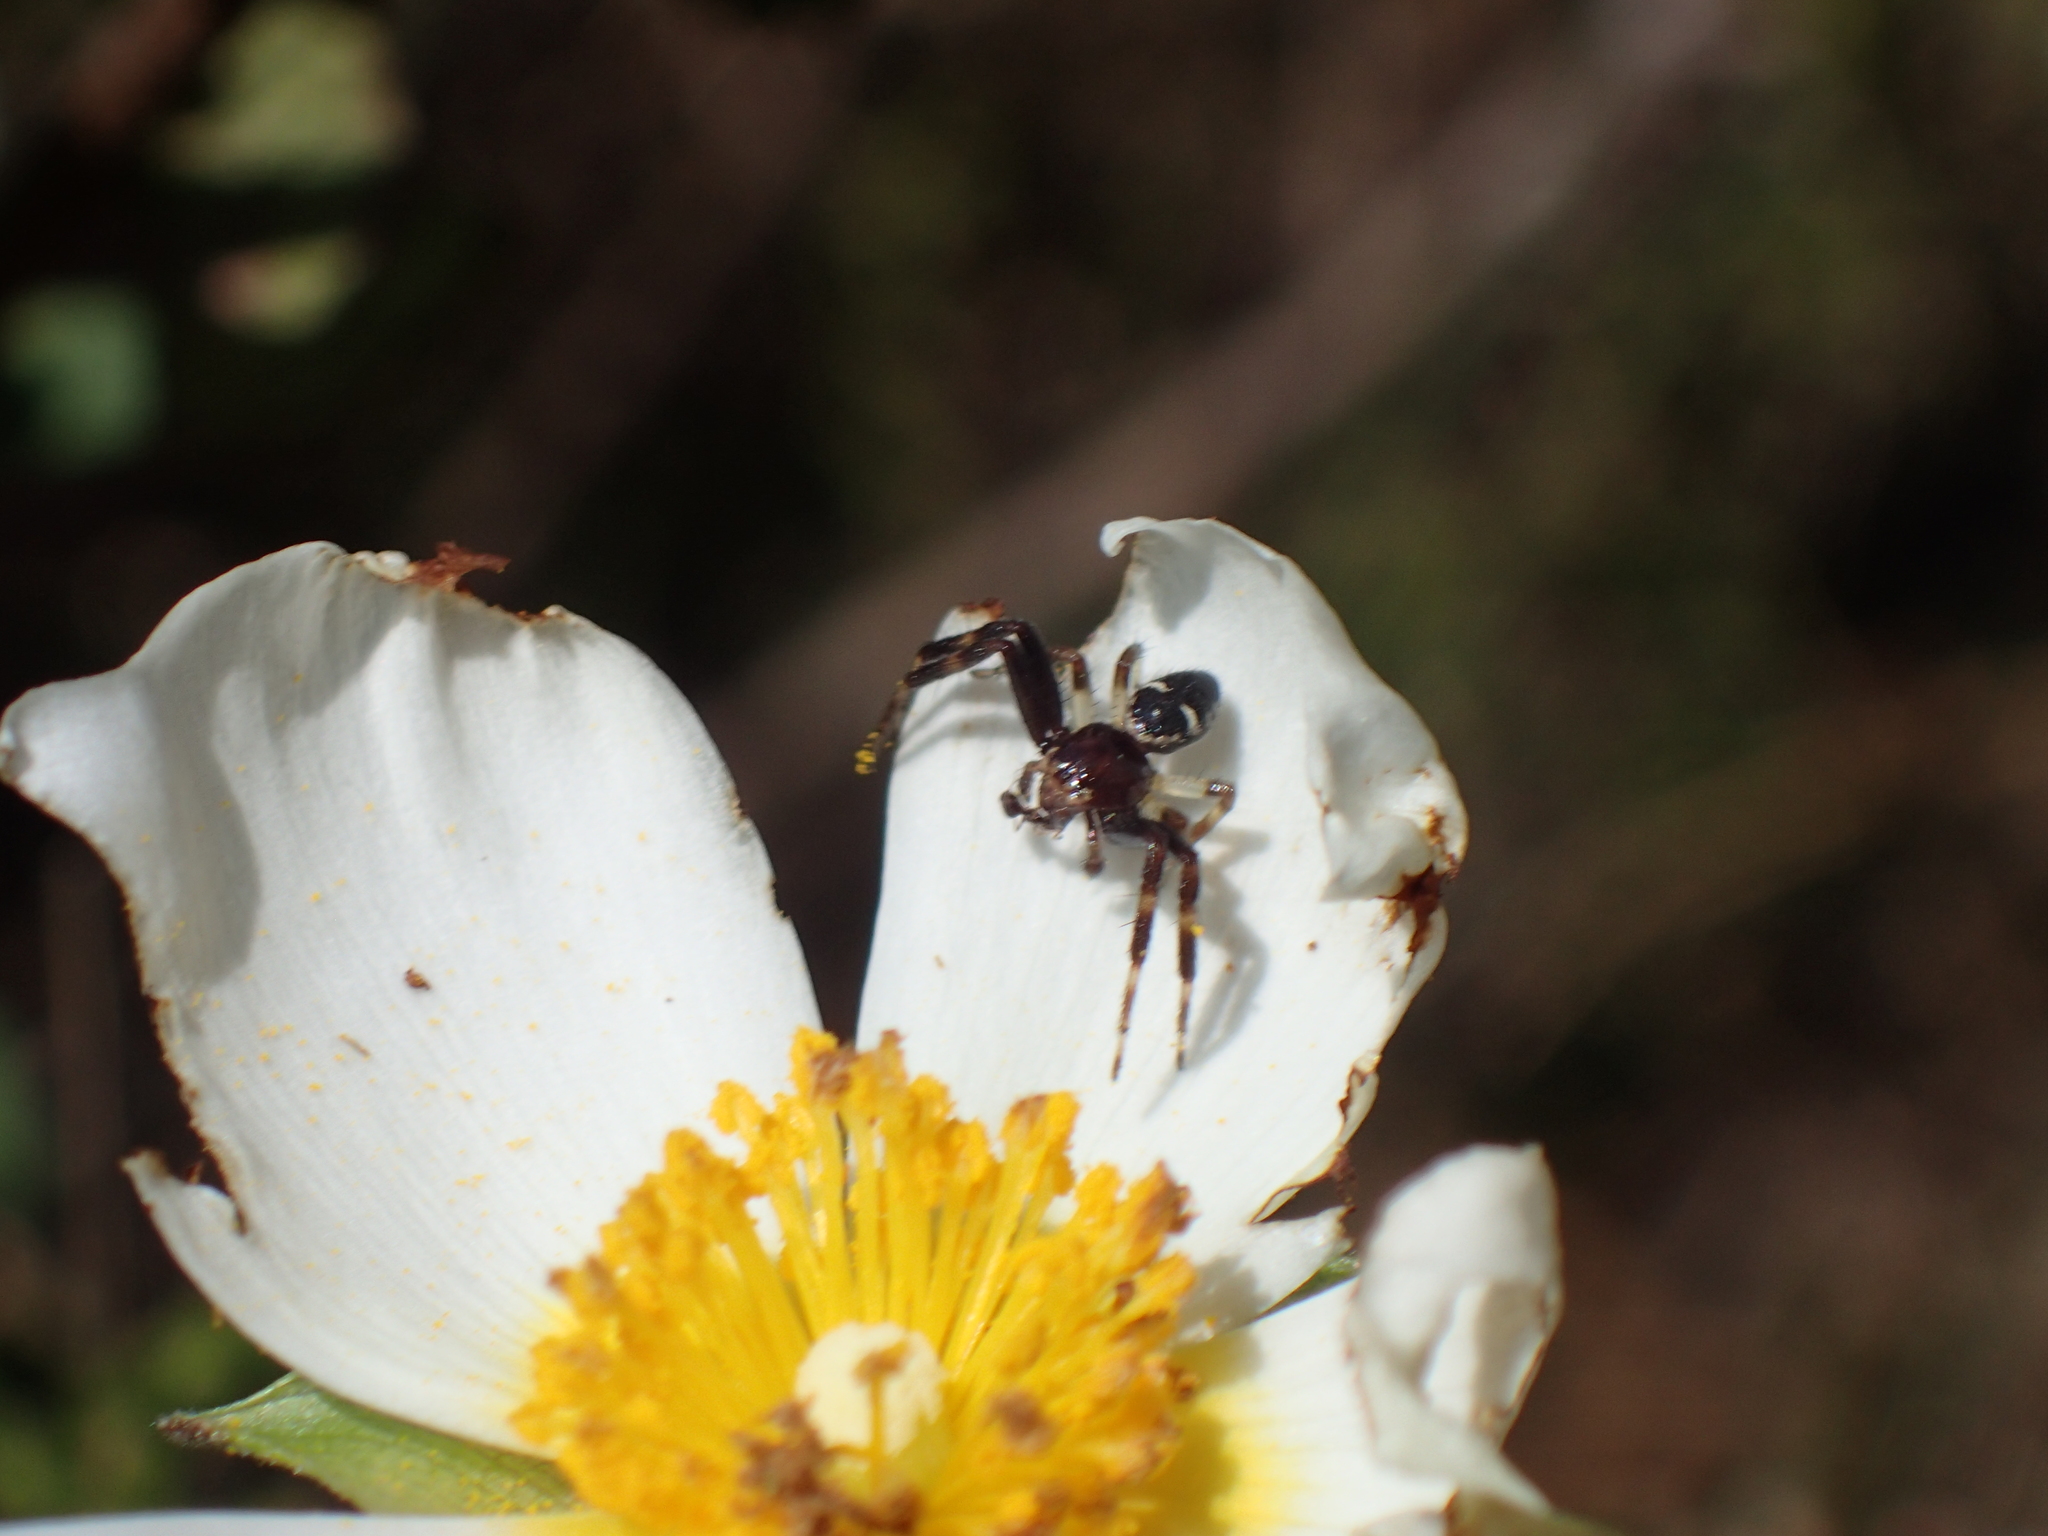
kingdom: Animalia
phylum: Arthropoda
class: Arachnida
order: Araneae
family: Thomisidae
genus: Synema
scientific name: Synema globosum
